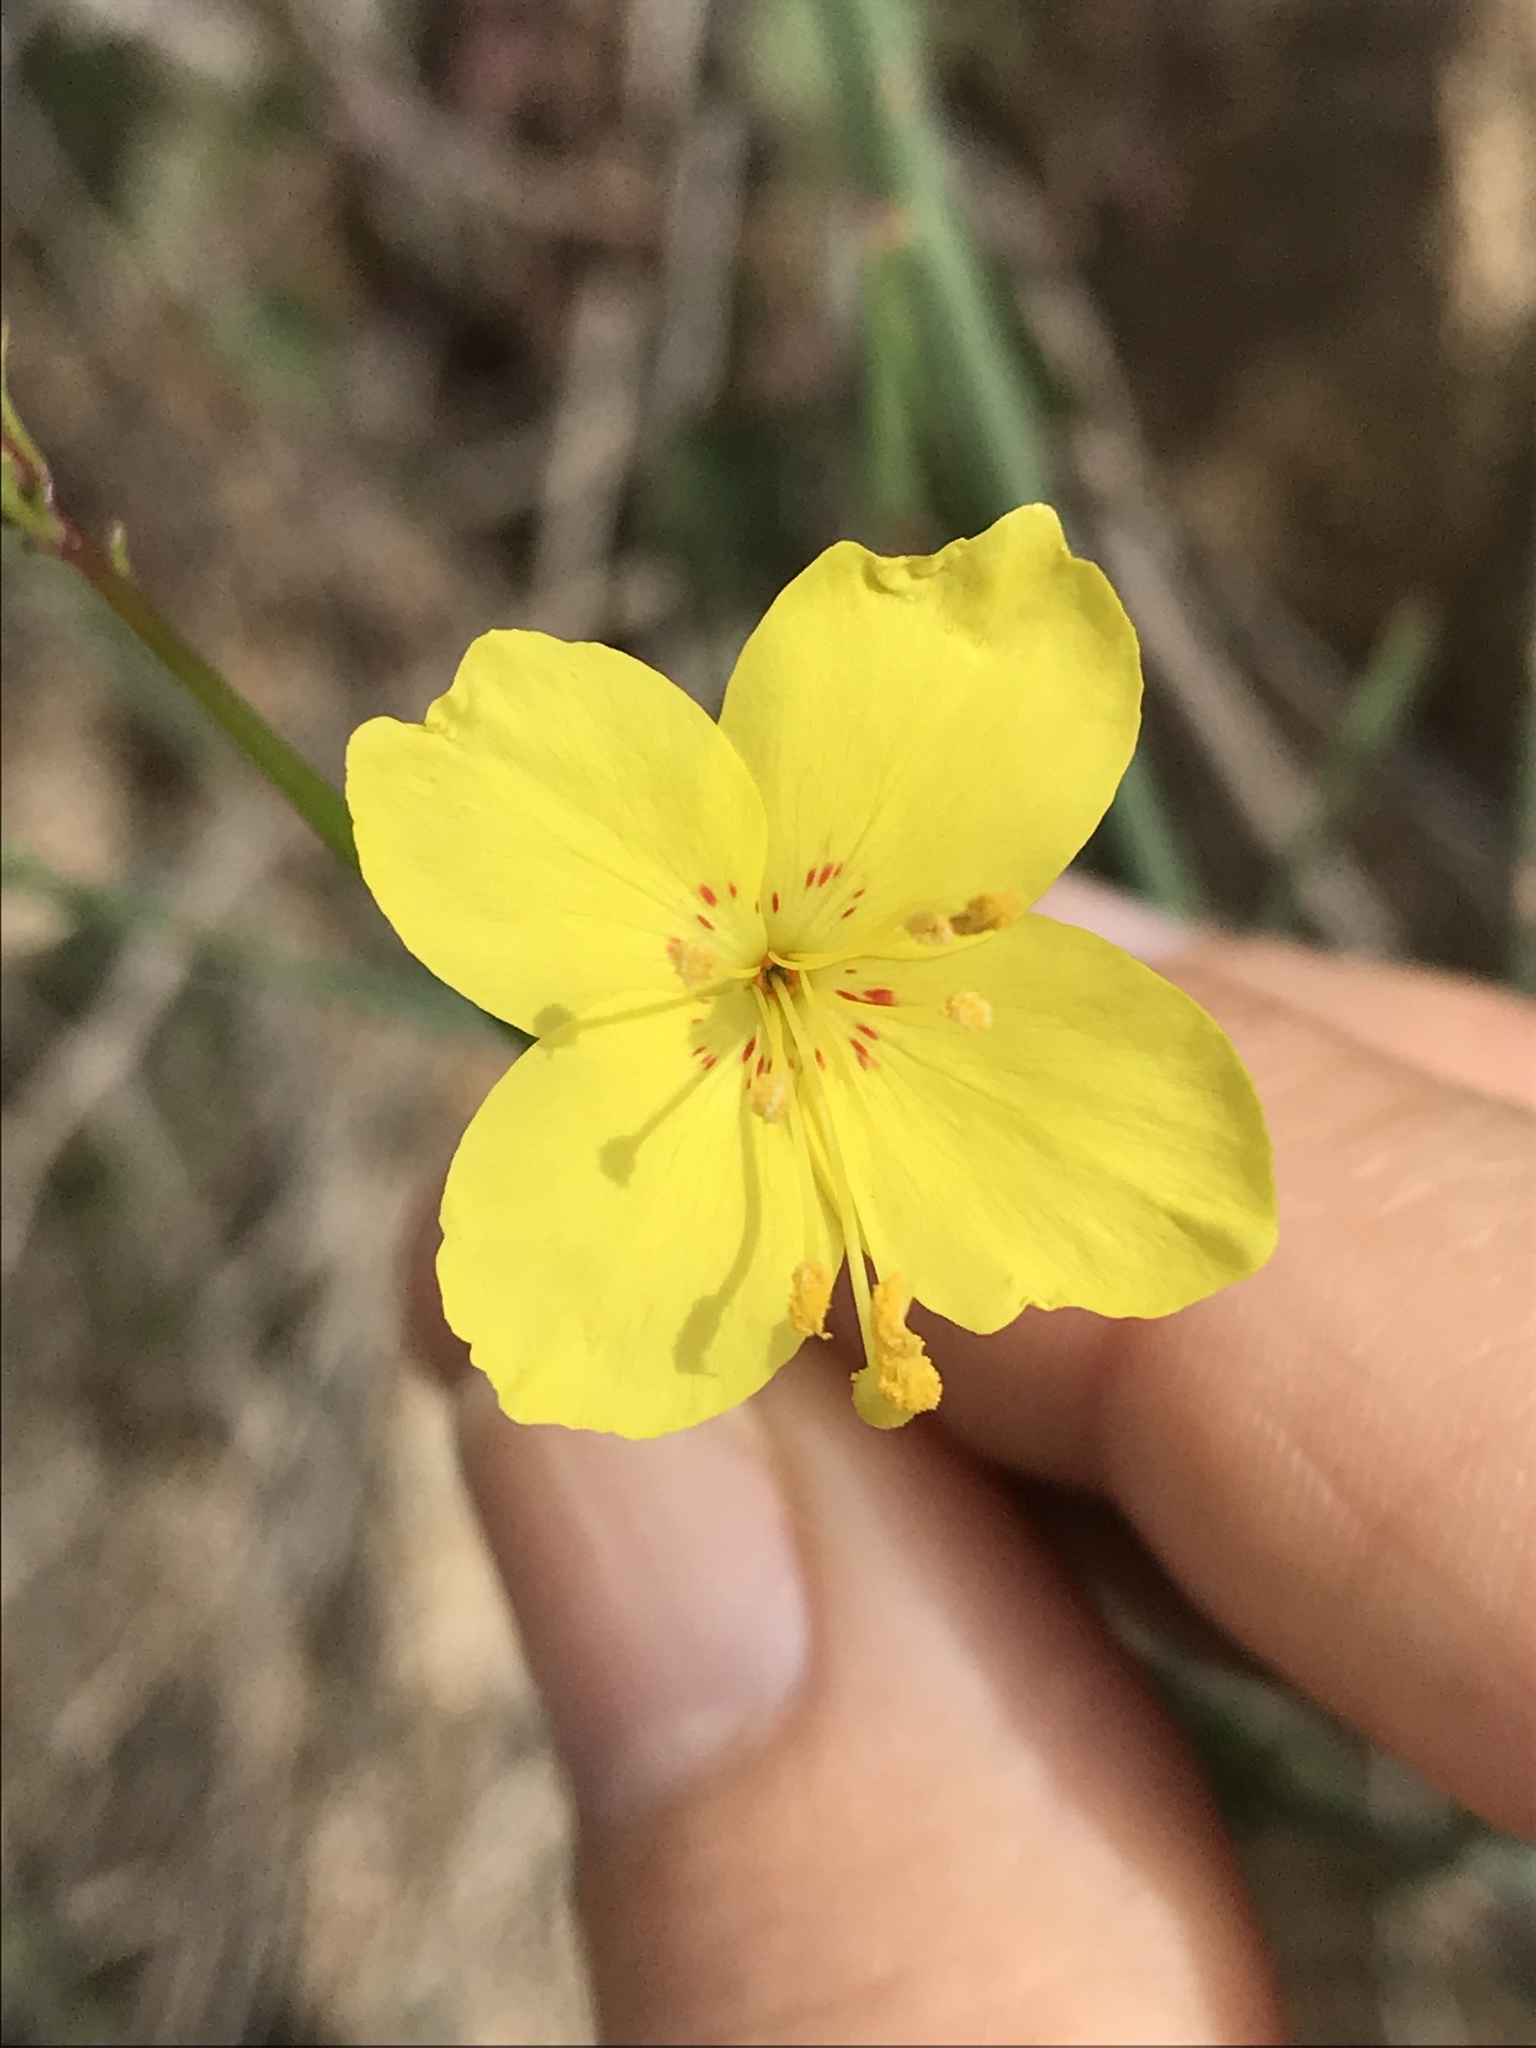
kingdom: Plantae
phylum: Tracheophyta
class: Magnoliopsida
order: Myrtales
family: Onagraceae
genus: Eulobus
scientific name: Eulobus californicus
